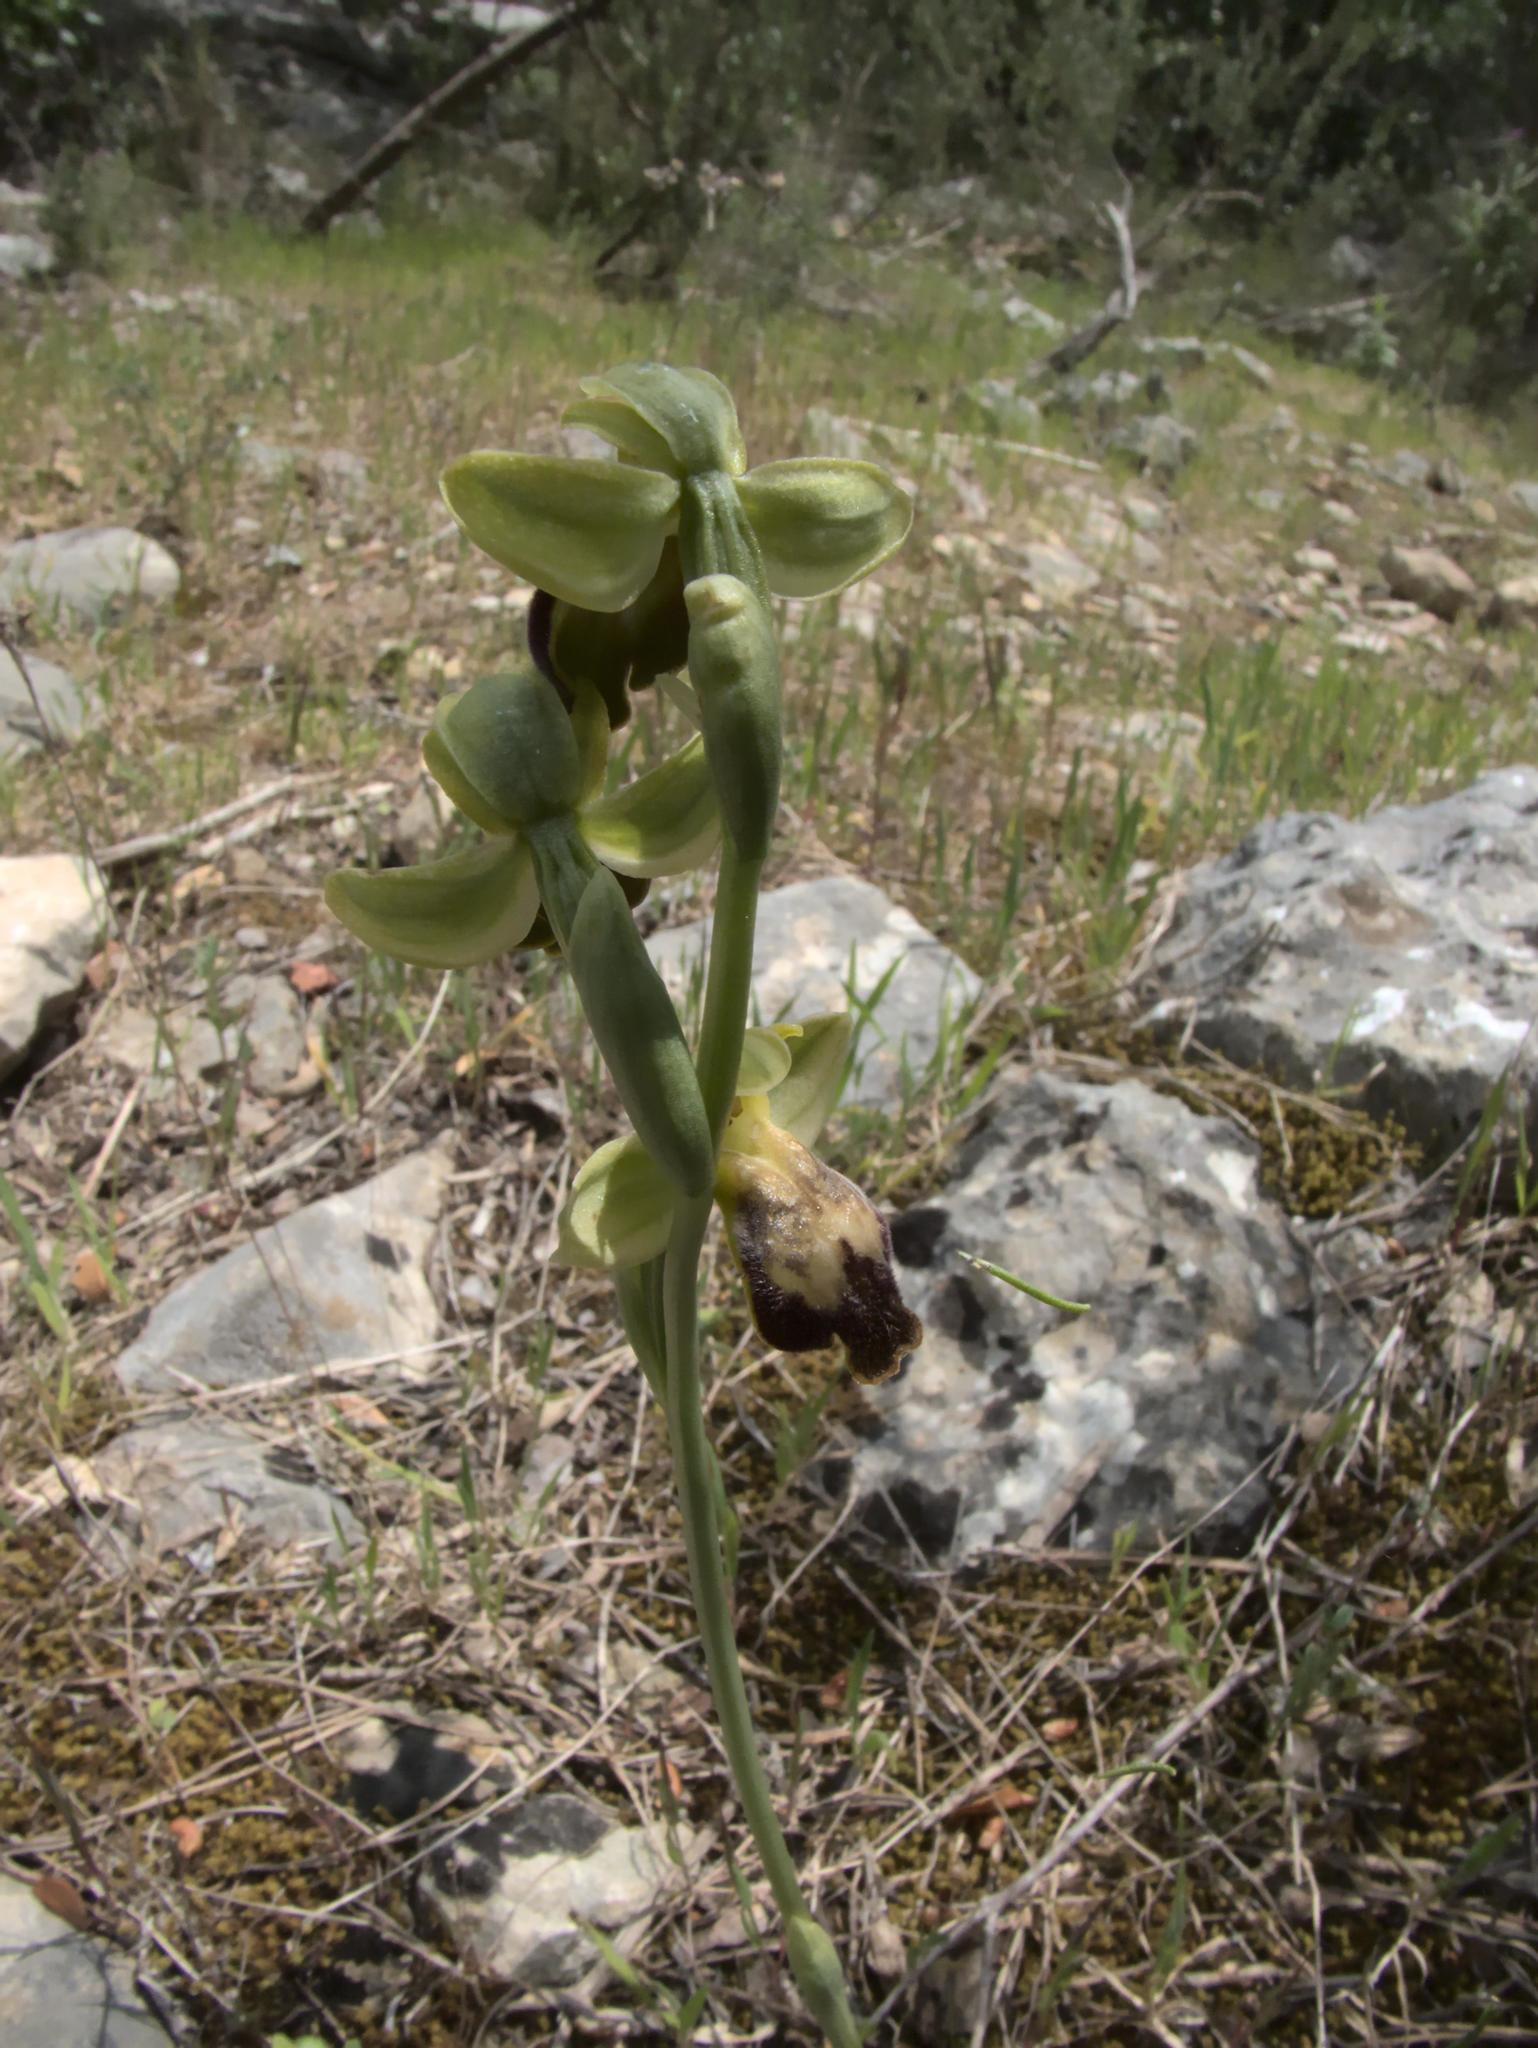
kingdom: Plantae
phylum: Tracheophyta
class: Liliopsida
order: Asparagales
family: Orchidaceae
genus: Ophrys
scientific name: Ophrys fusca
